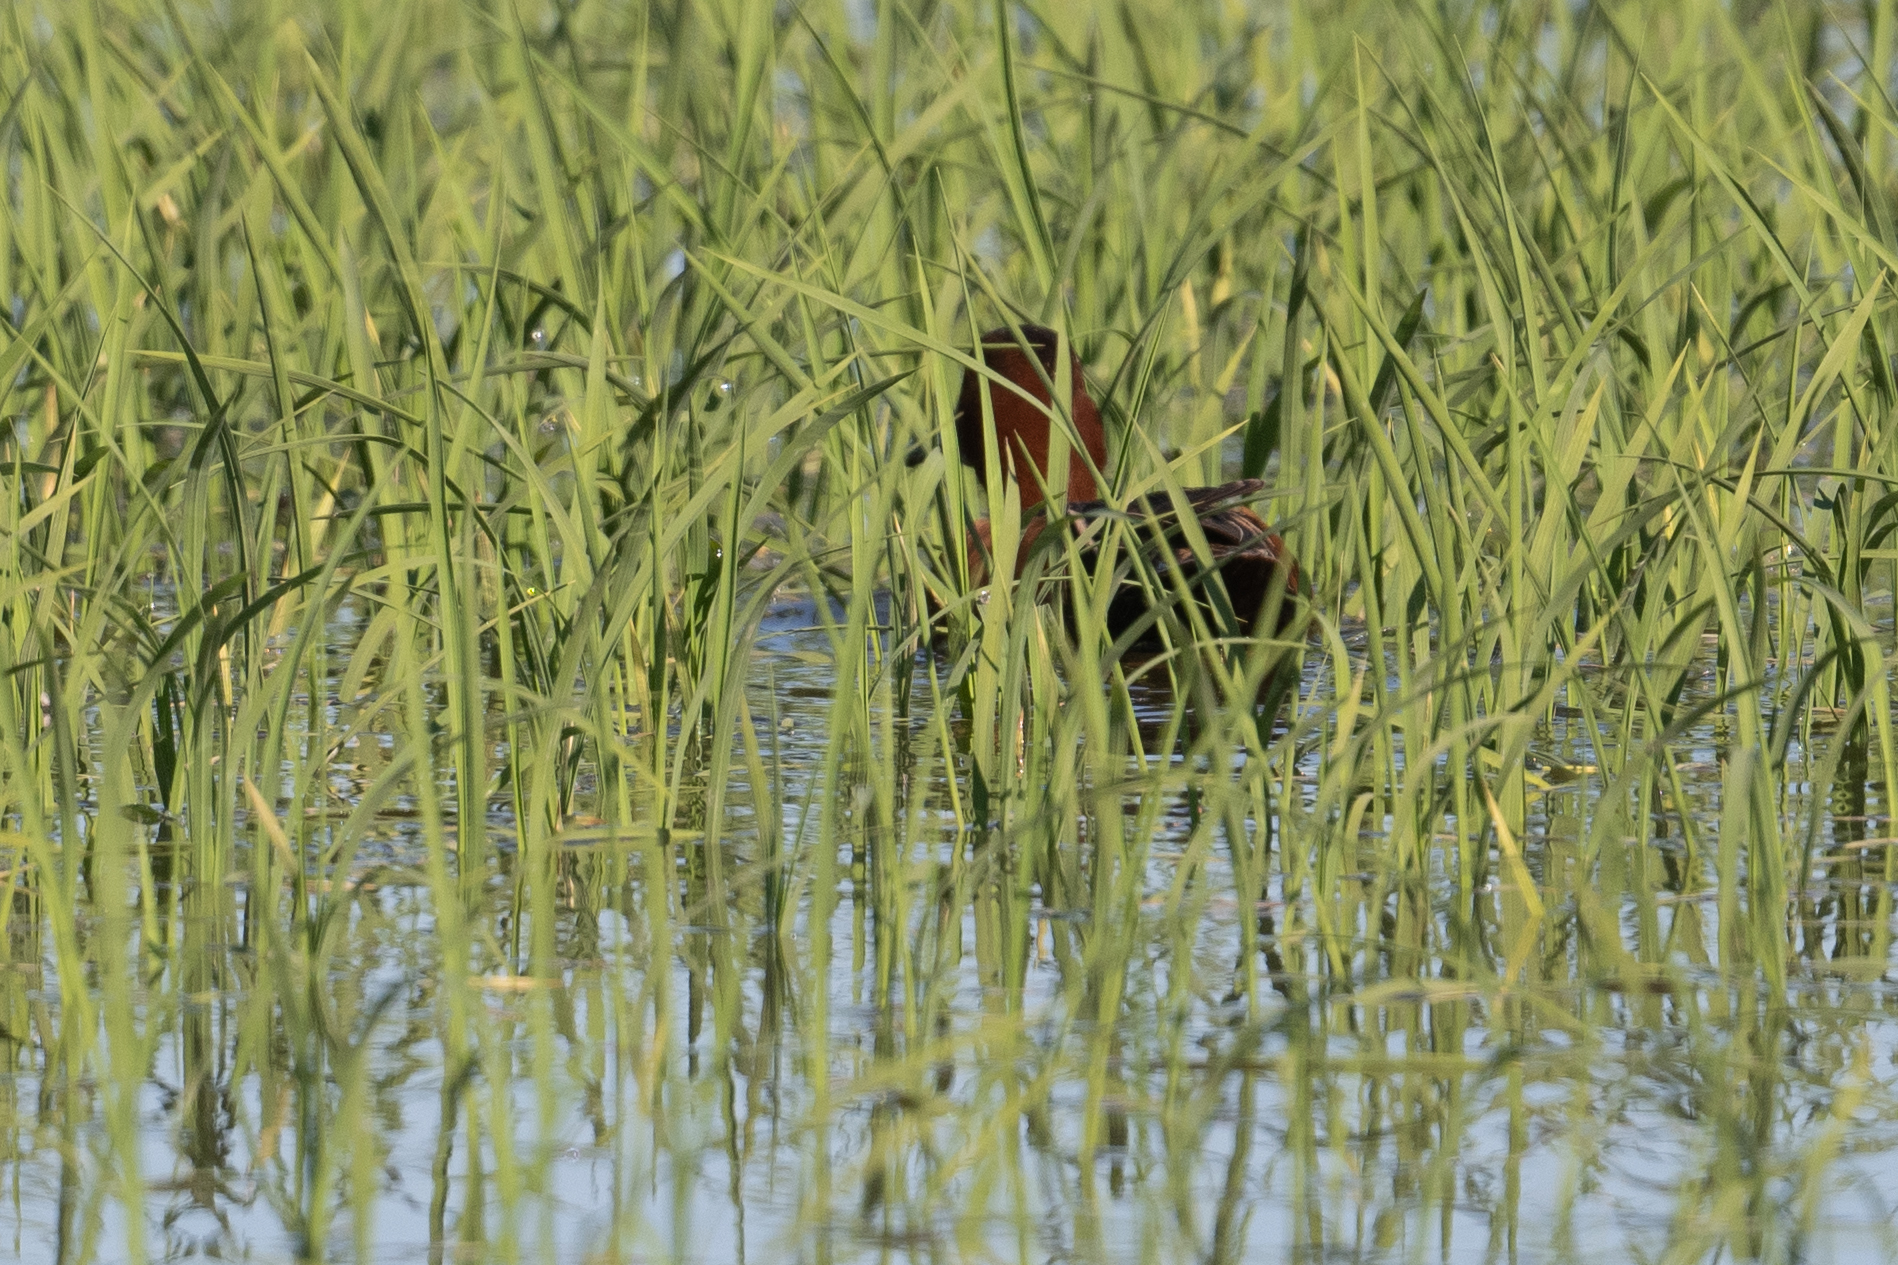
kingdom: Animalia
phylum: Chordata
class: Aves
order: Anseriformes
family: Anatidae
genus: Spatula
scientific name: Spatula cyanoptera
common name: Cinnamon teal
